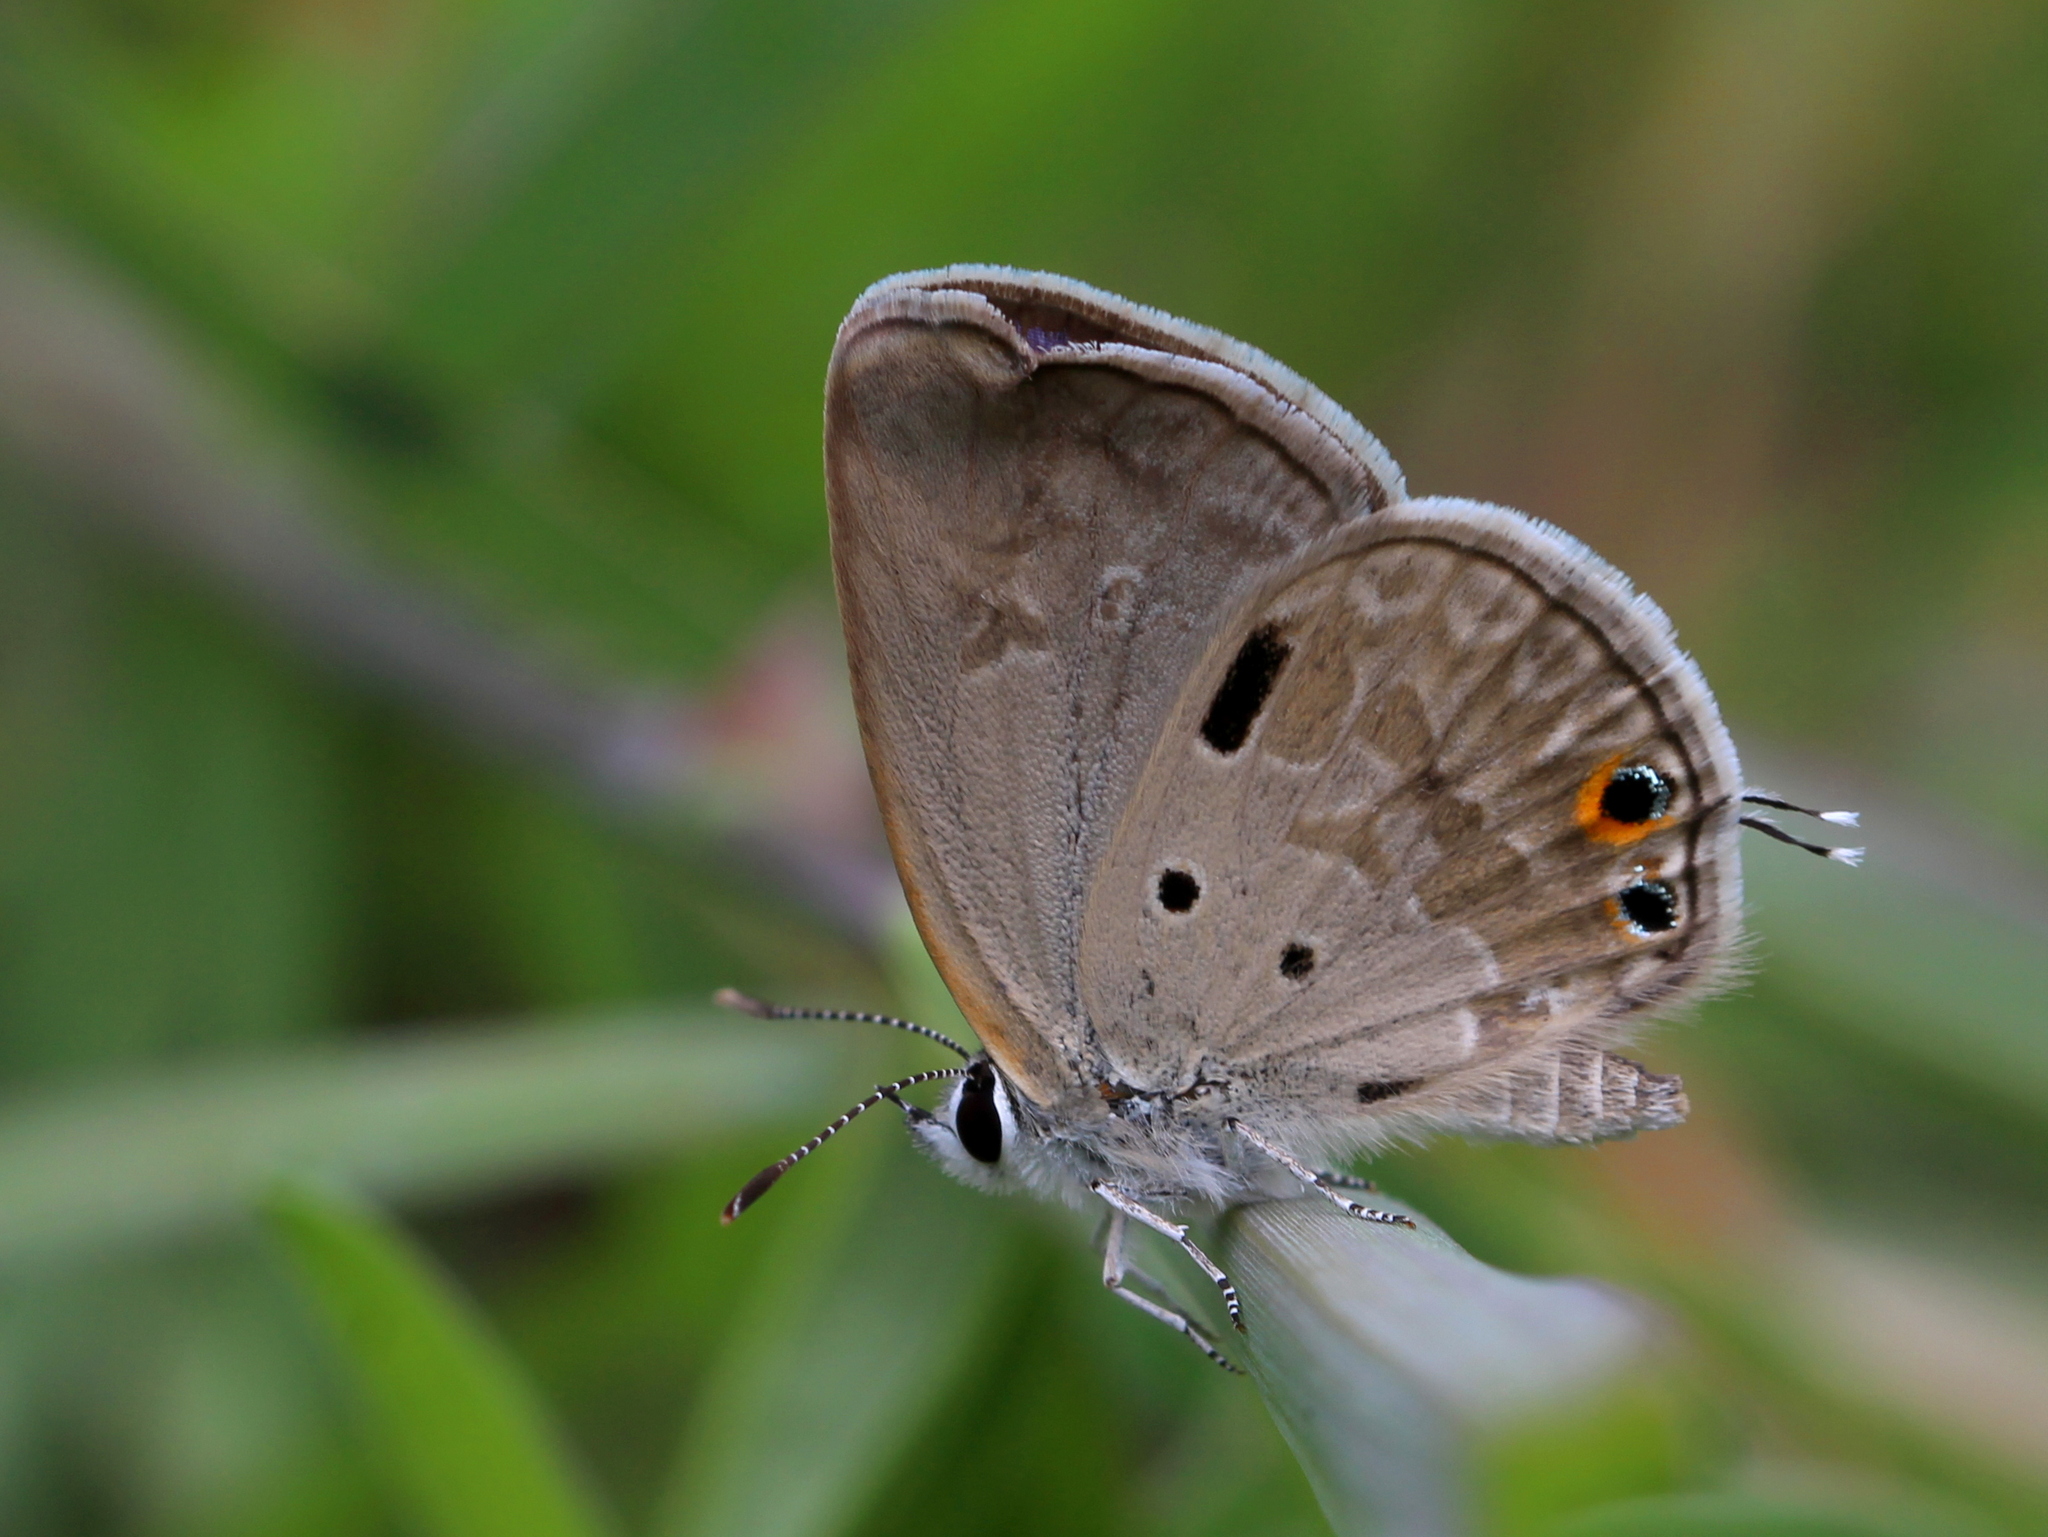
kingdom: Animalia
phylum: Arthropoda
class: Insecta
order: Lepidoptera
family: Lycaenidae
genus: Chilades
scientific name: Chilades parrhasius
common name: Small cupid
